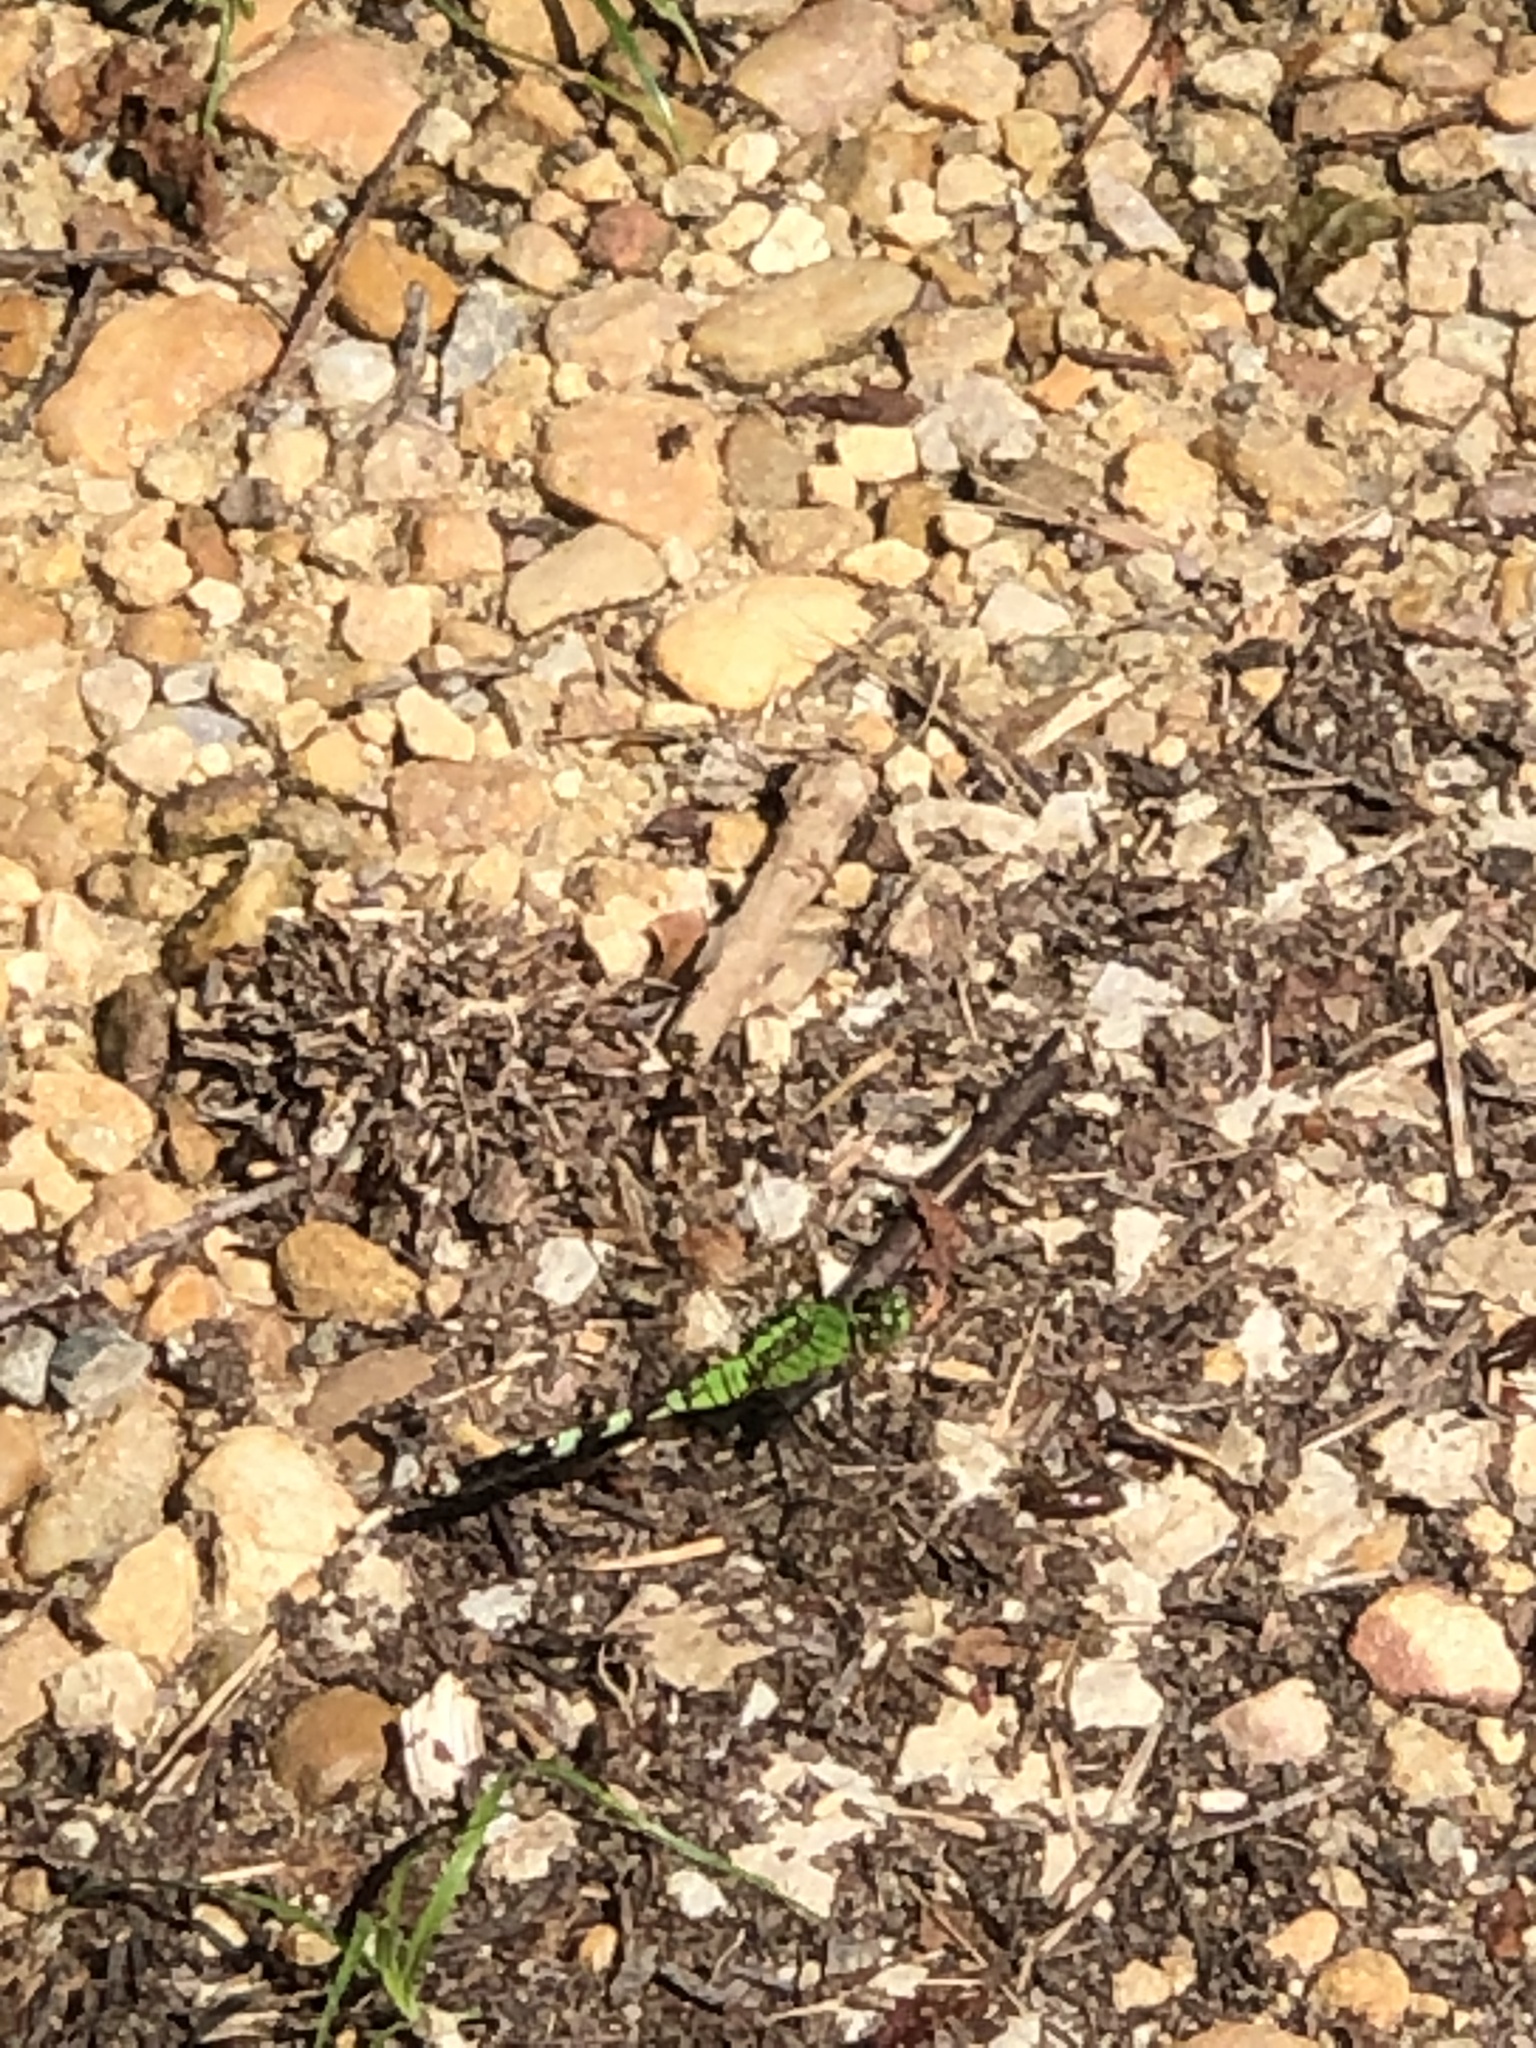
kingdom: Animalia
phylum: Arthropoda
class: Insecta
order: Odonata
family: Libellulidae
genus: Erythemis
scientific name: Erythemis simplicicollis
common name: Eastern pondhawk
